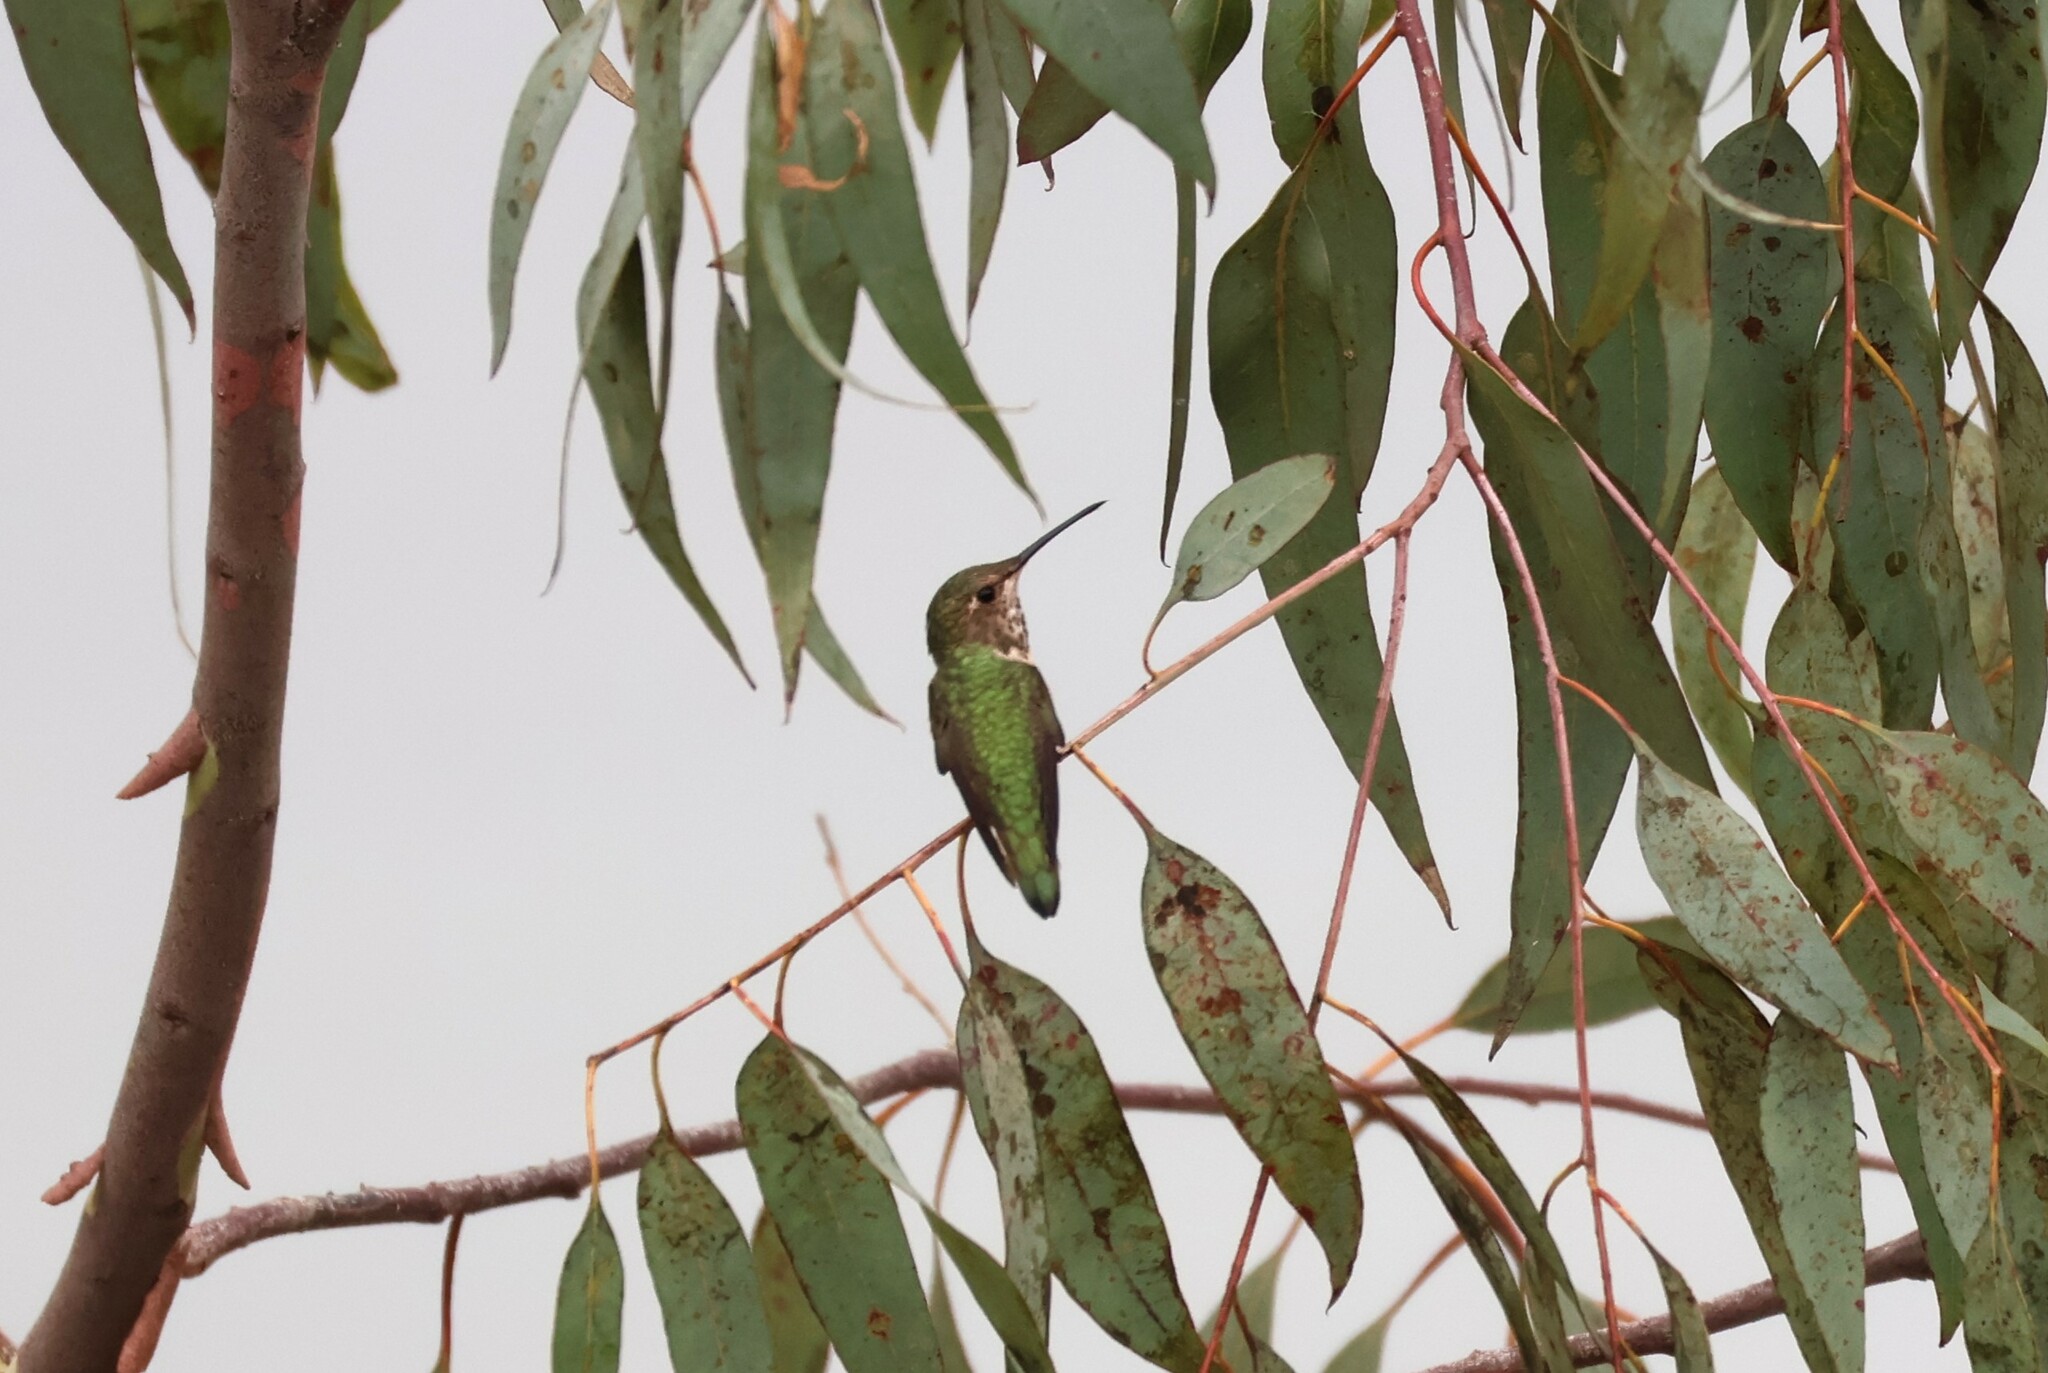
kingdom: Animalia
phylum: Chordata
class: Aves
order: Apodiformes
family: Trochilidae
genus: Selasphorus
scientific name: Selasphorus
